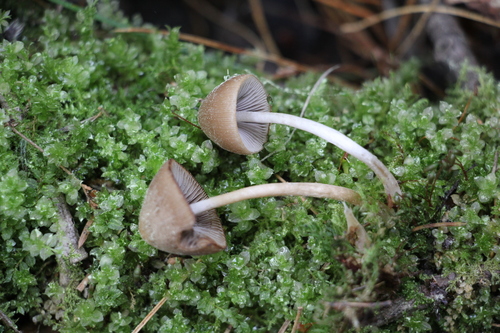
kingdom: Fungi
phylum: Basidiomycota
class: Agaricomycetes
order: Agaricales
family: Psathyrellaceae
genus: Psathyrella
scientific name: Psathyrella noli-tangere
